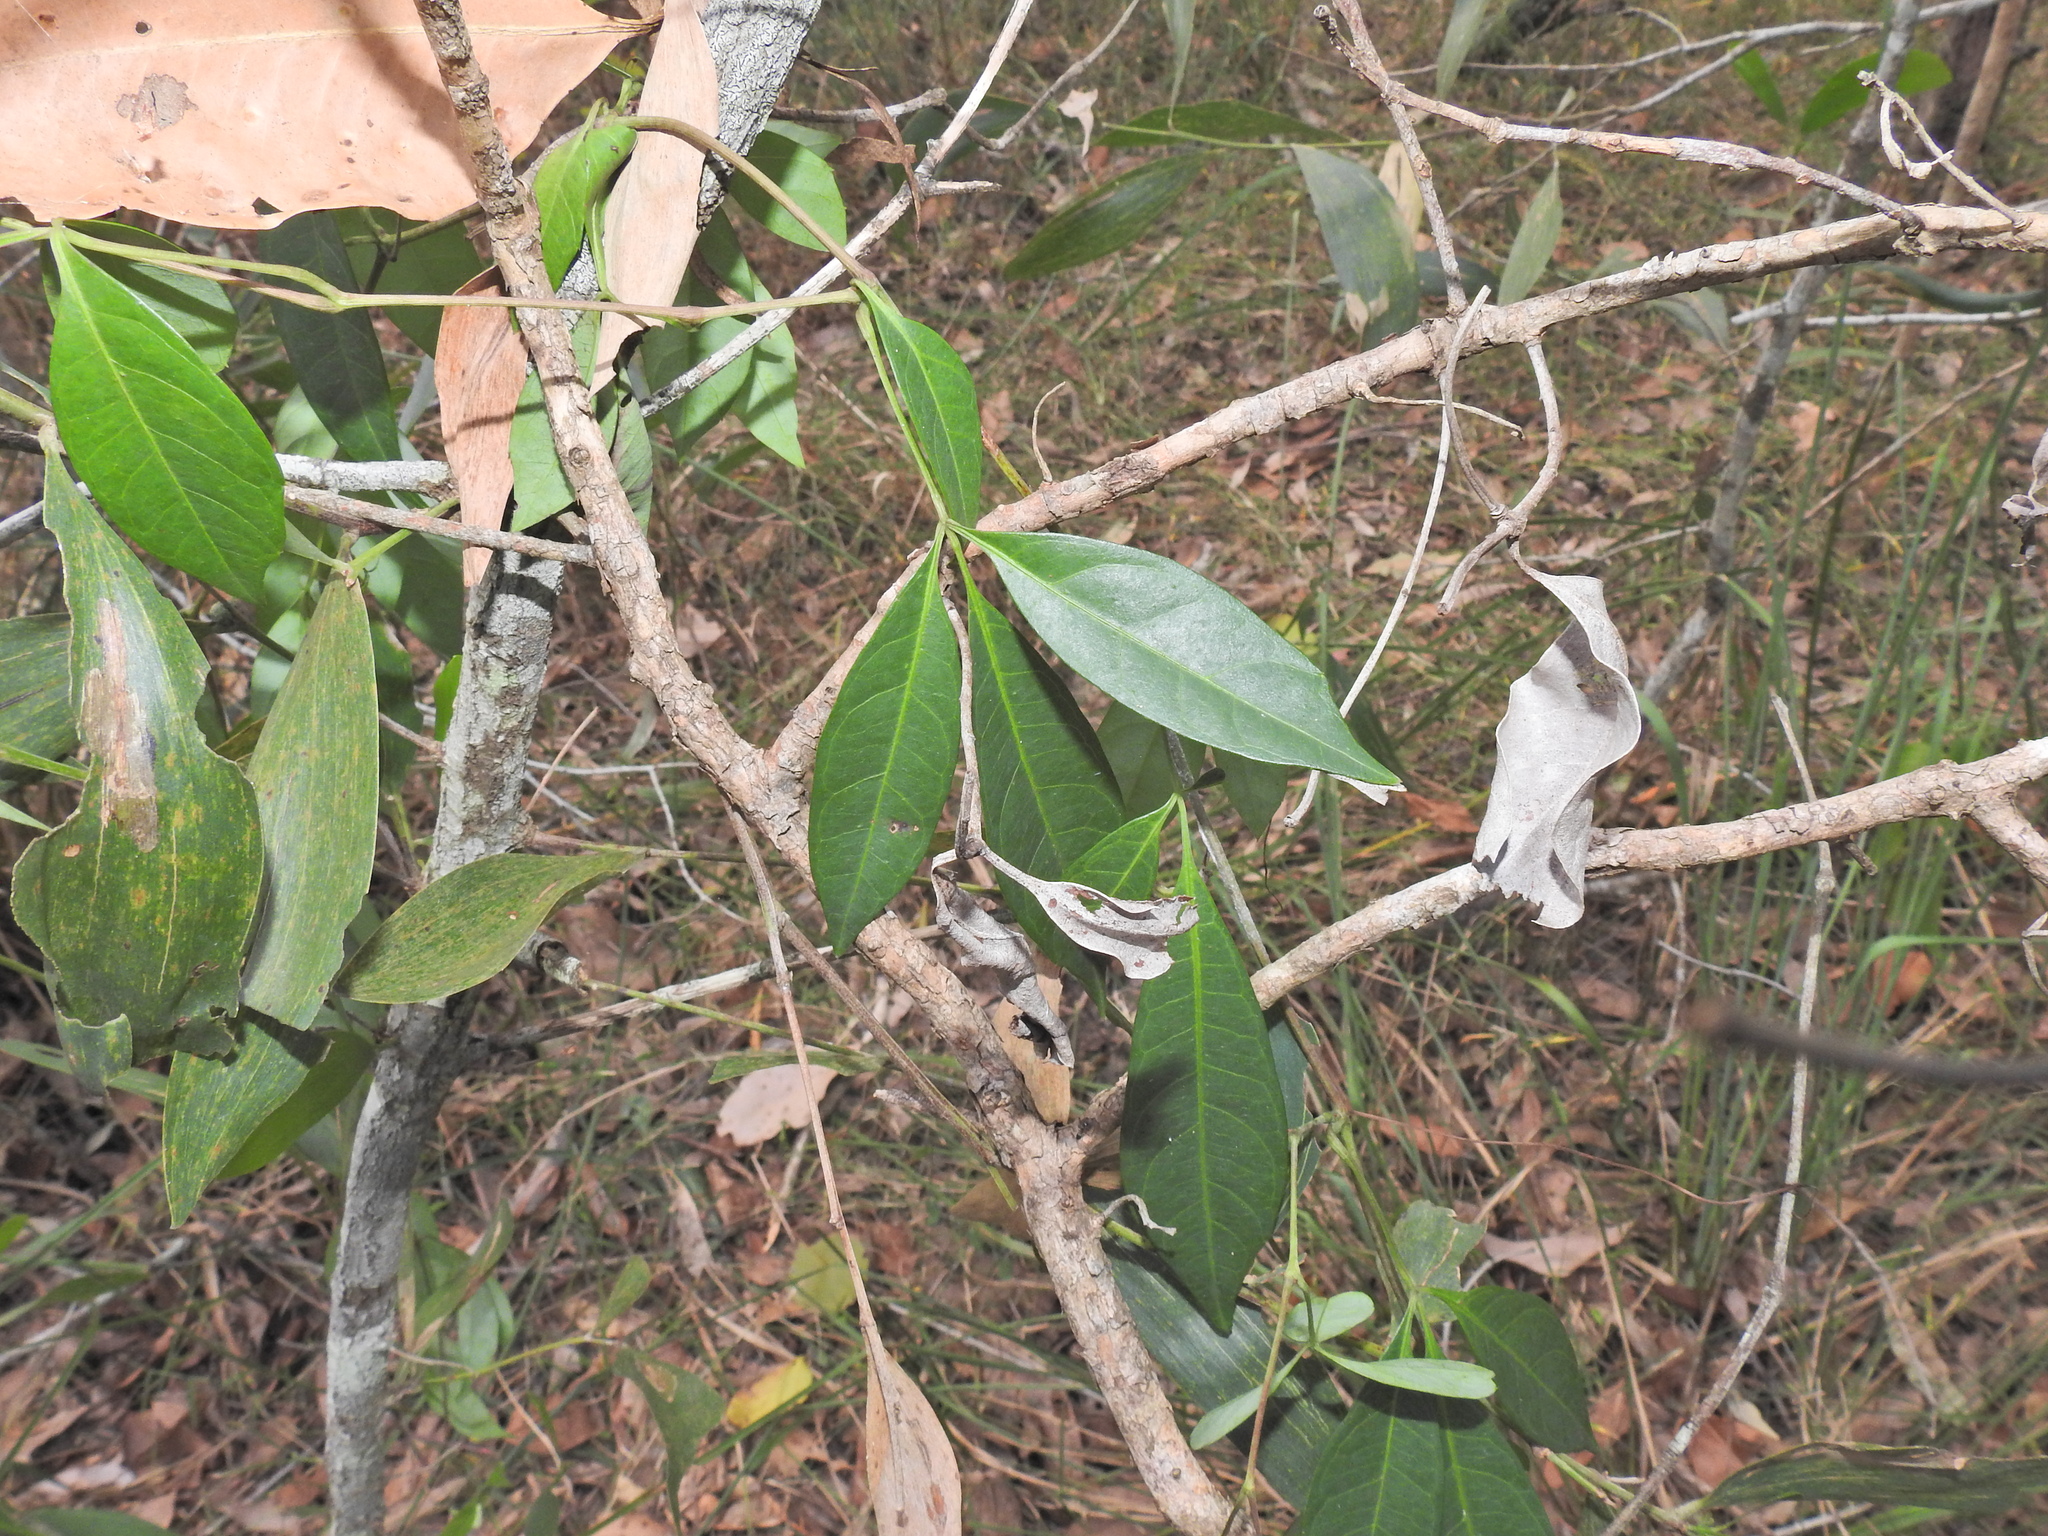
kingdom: Plantae
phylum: Tracheophyta
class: Magnoliopsida
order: Vitales
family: Vitaceae
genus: Clematicissus
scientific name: Clematicissus opaca
